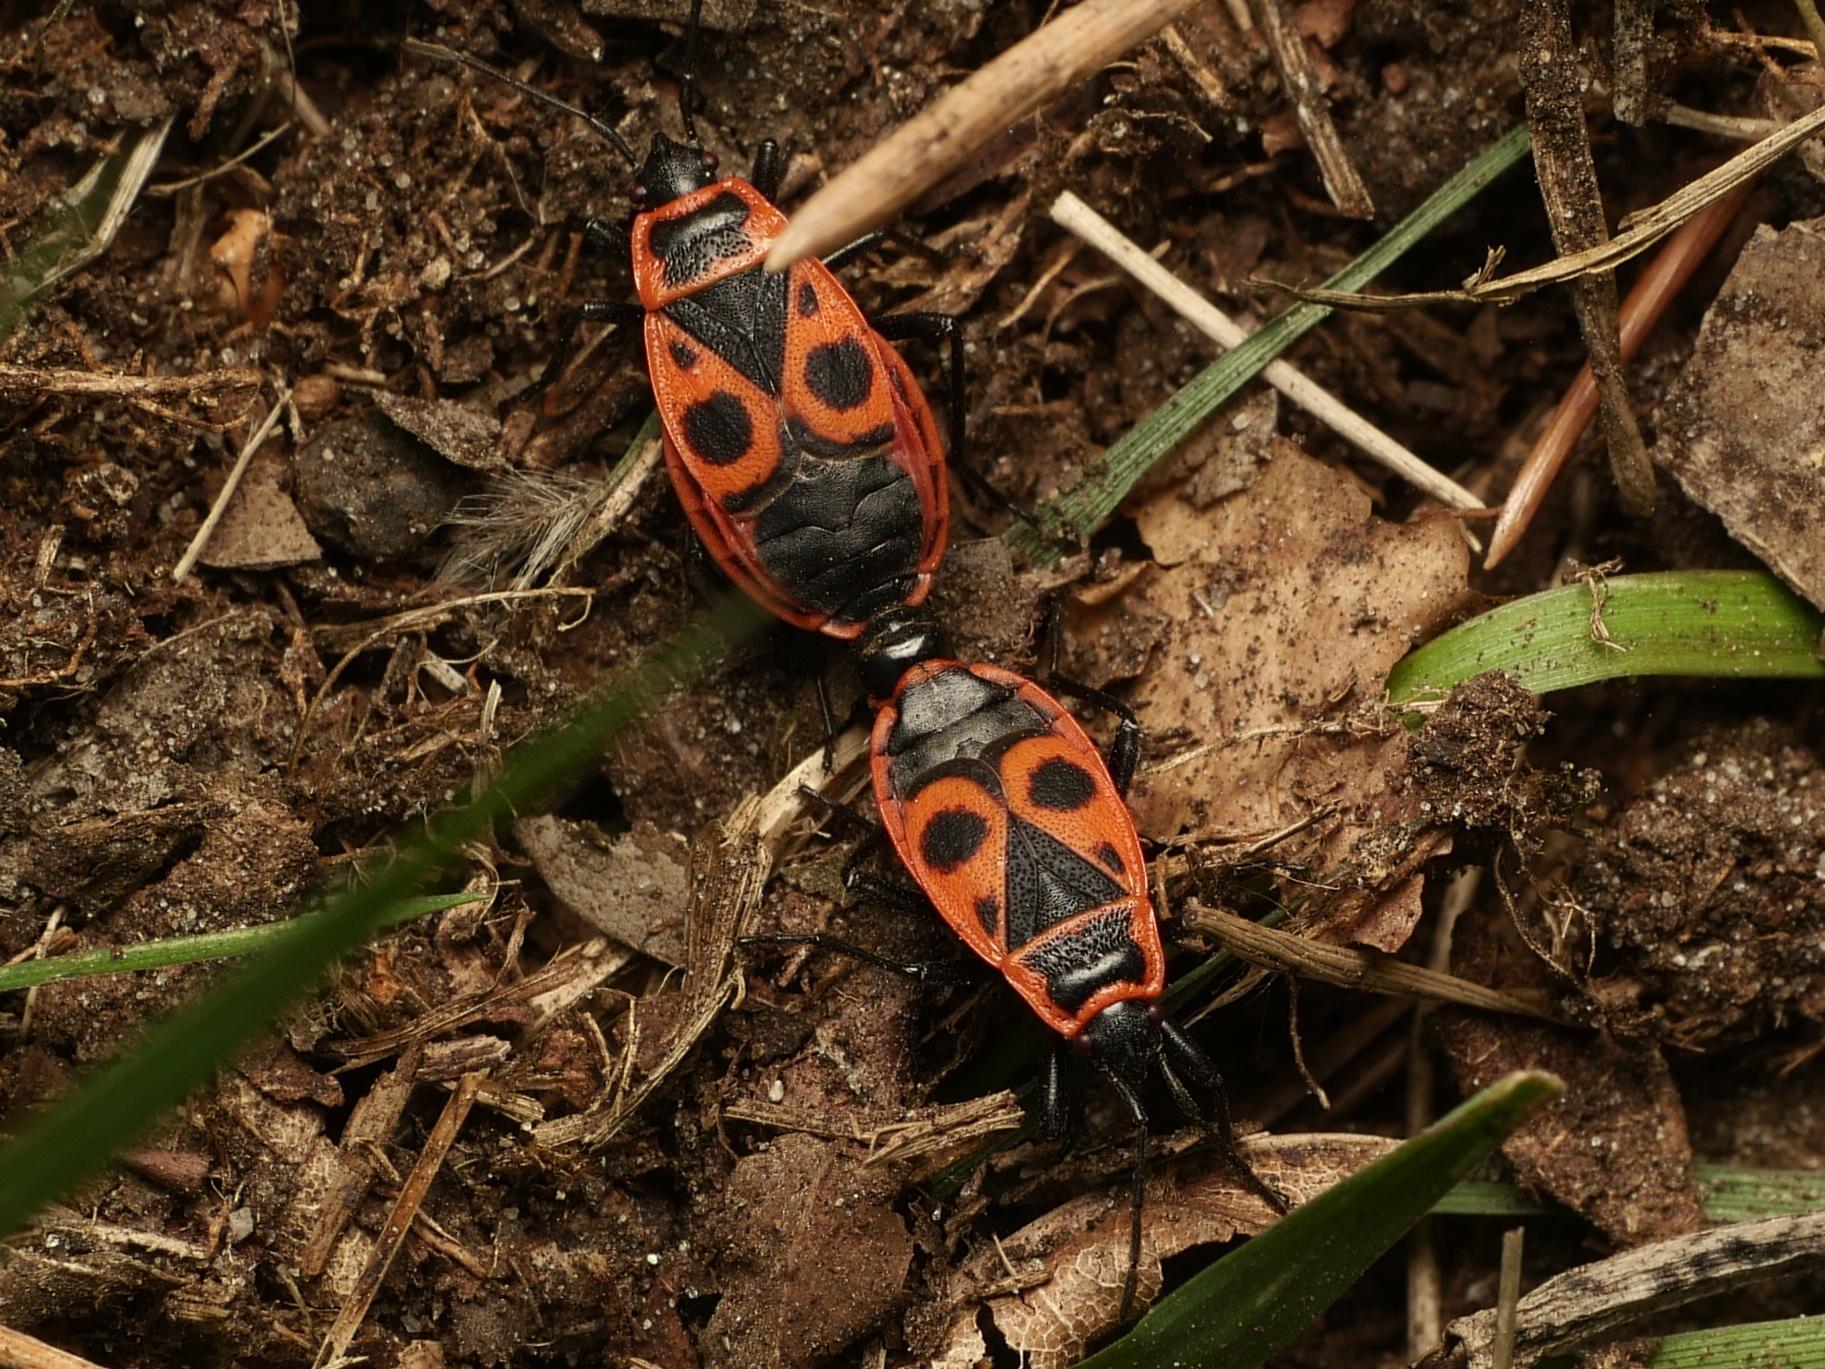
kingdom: Animalia
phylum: Arthropoda
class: Insecta
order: Hemiptera
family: Pyrrhocoridae
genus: Pyrrhocoris
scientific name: Pyrrhocoris apterus
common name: Firebug
